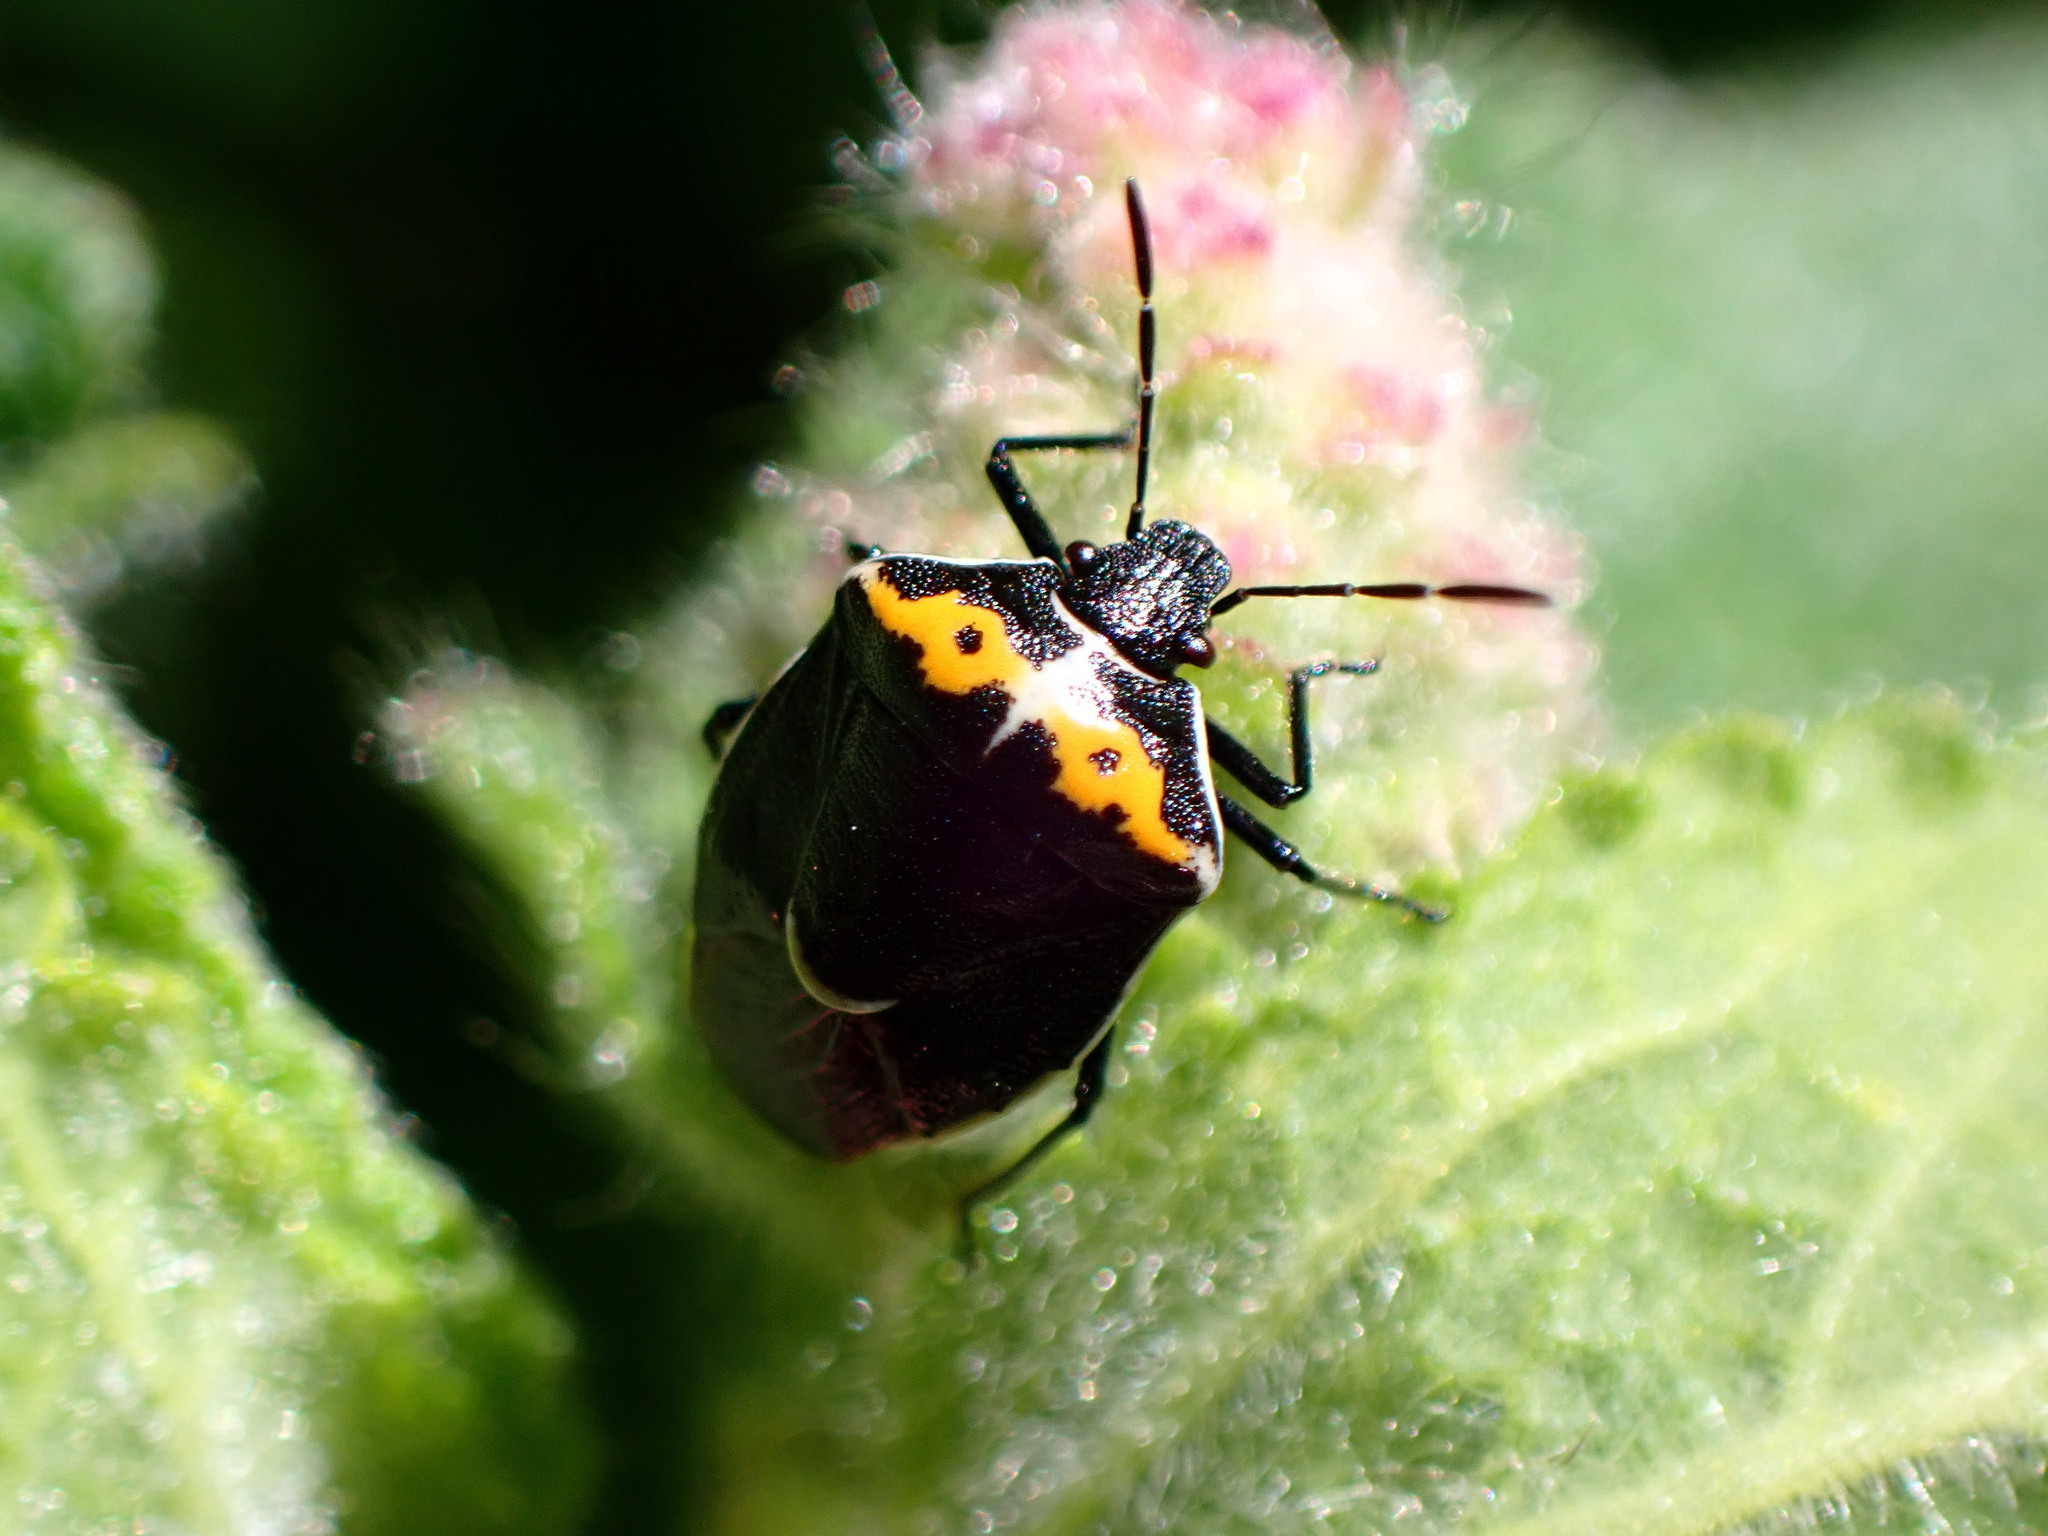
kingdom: Animalia
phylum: Arthropoda
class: Insecta
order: Hemiptera
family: Pentatomidae
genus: Cosmopepla
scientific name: Cosmopepla conspicillaris
